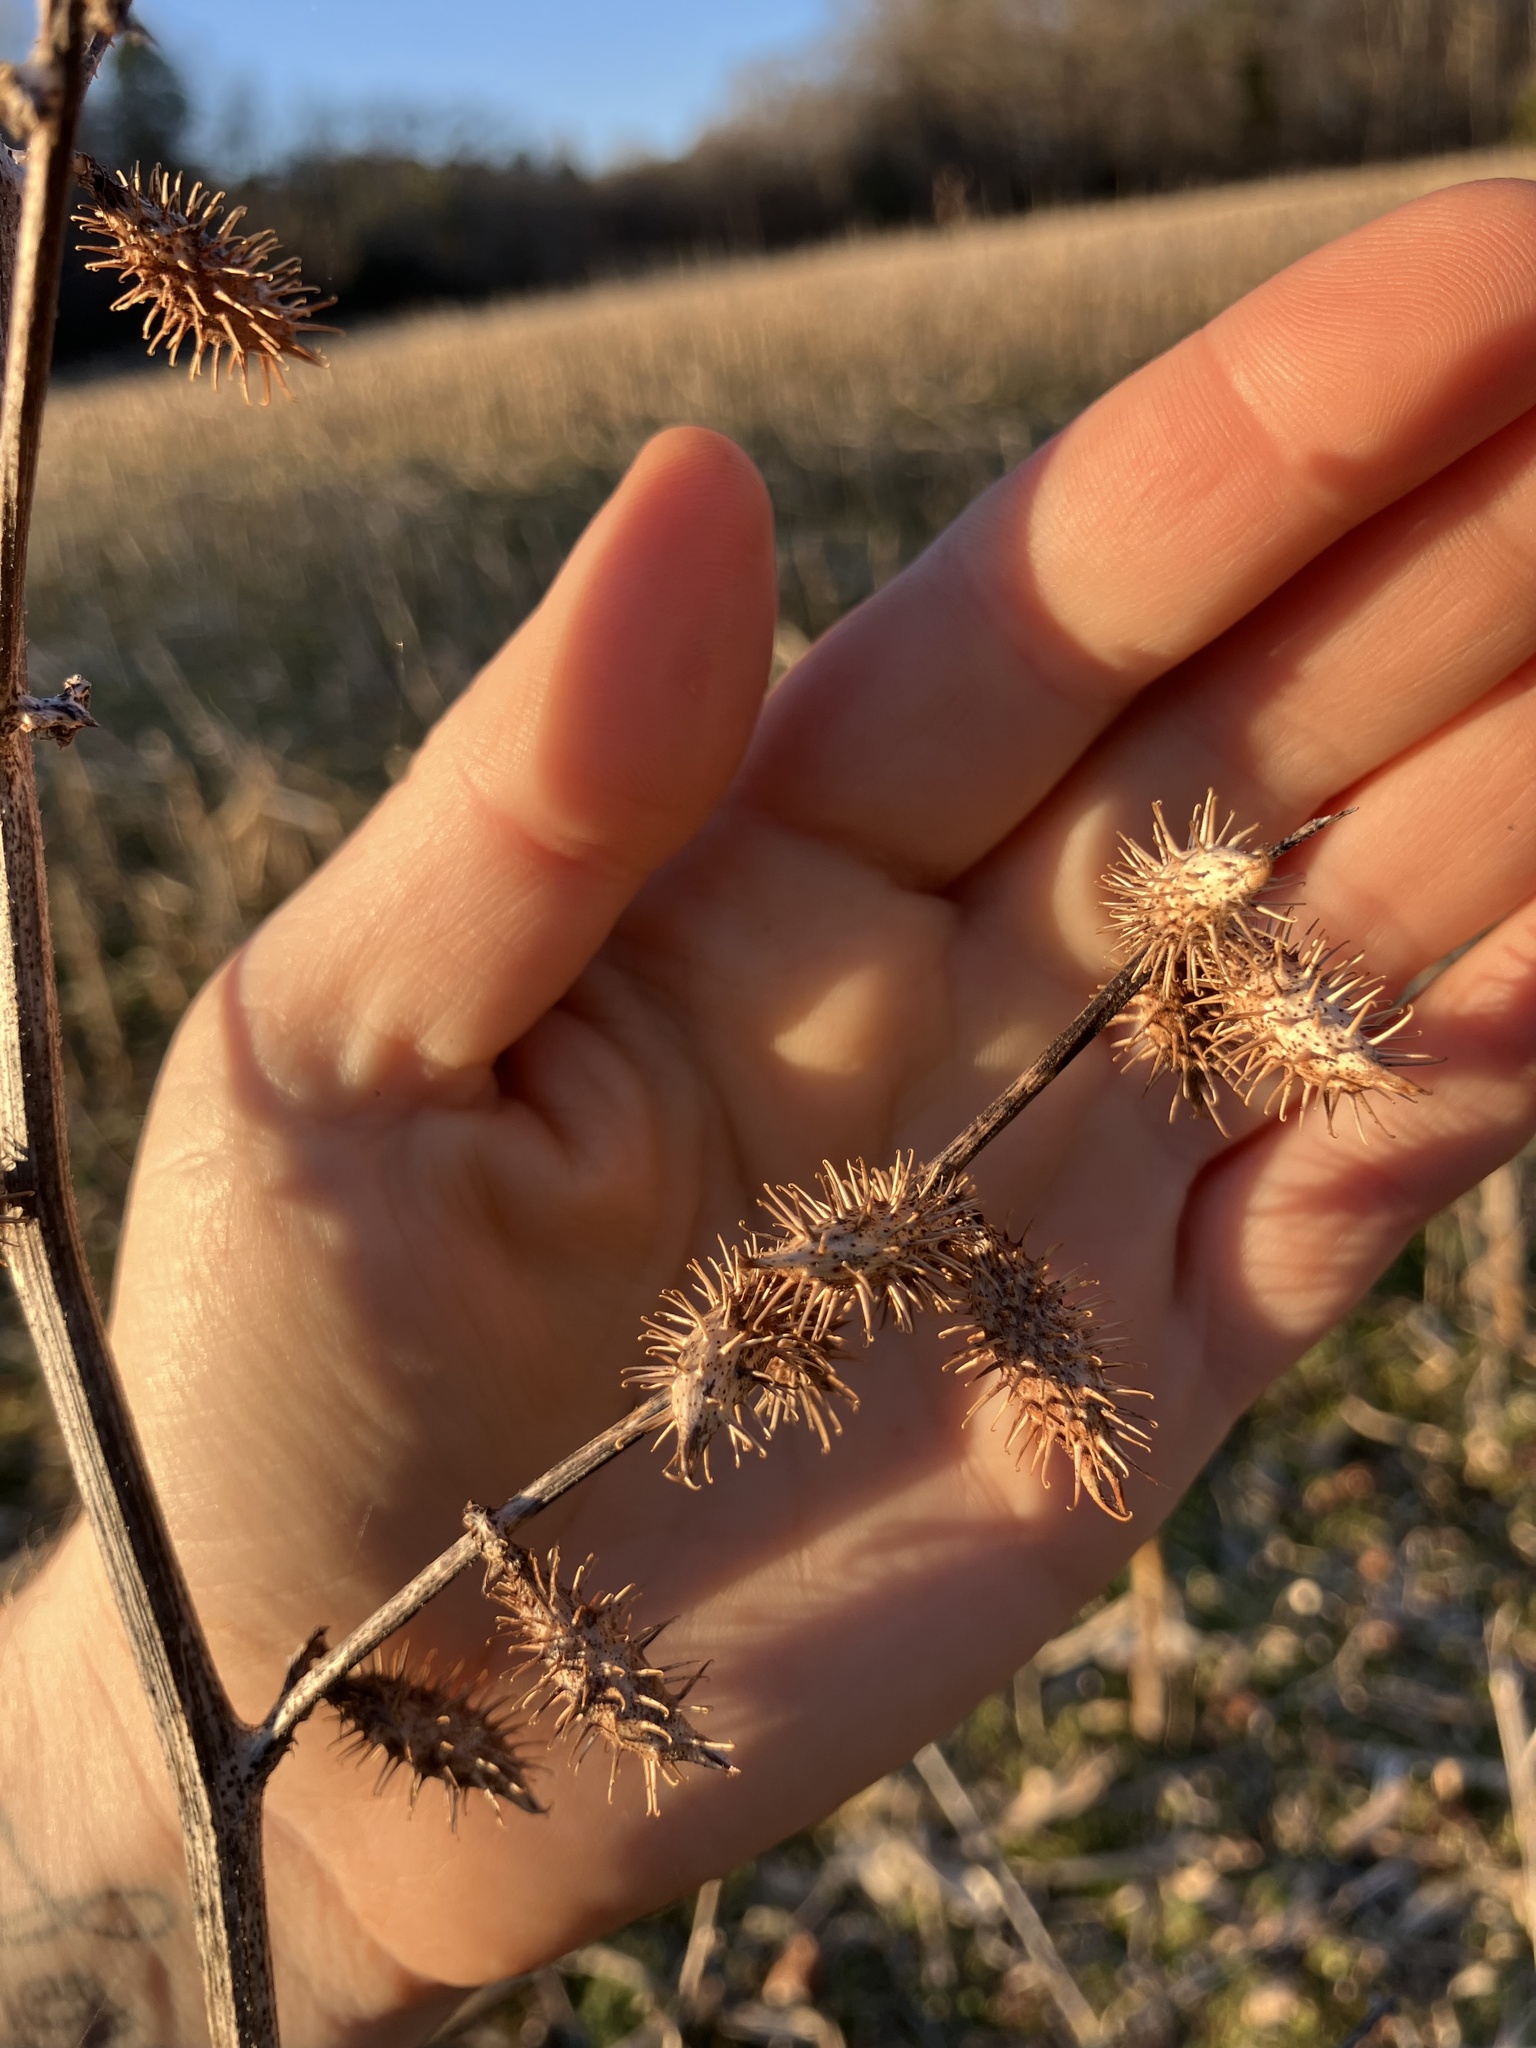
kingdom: Plantae
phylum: Tracheophyta
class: Magnoliopsida
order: Asterales
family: Asteraceae
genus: Xanthium
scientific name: Xanthium strumarium
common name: Rough cocklebur
